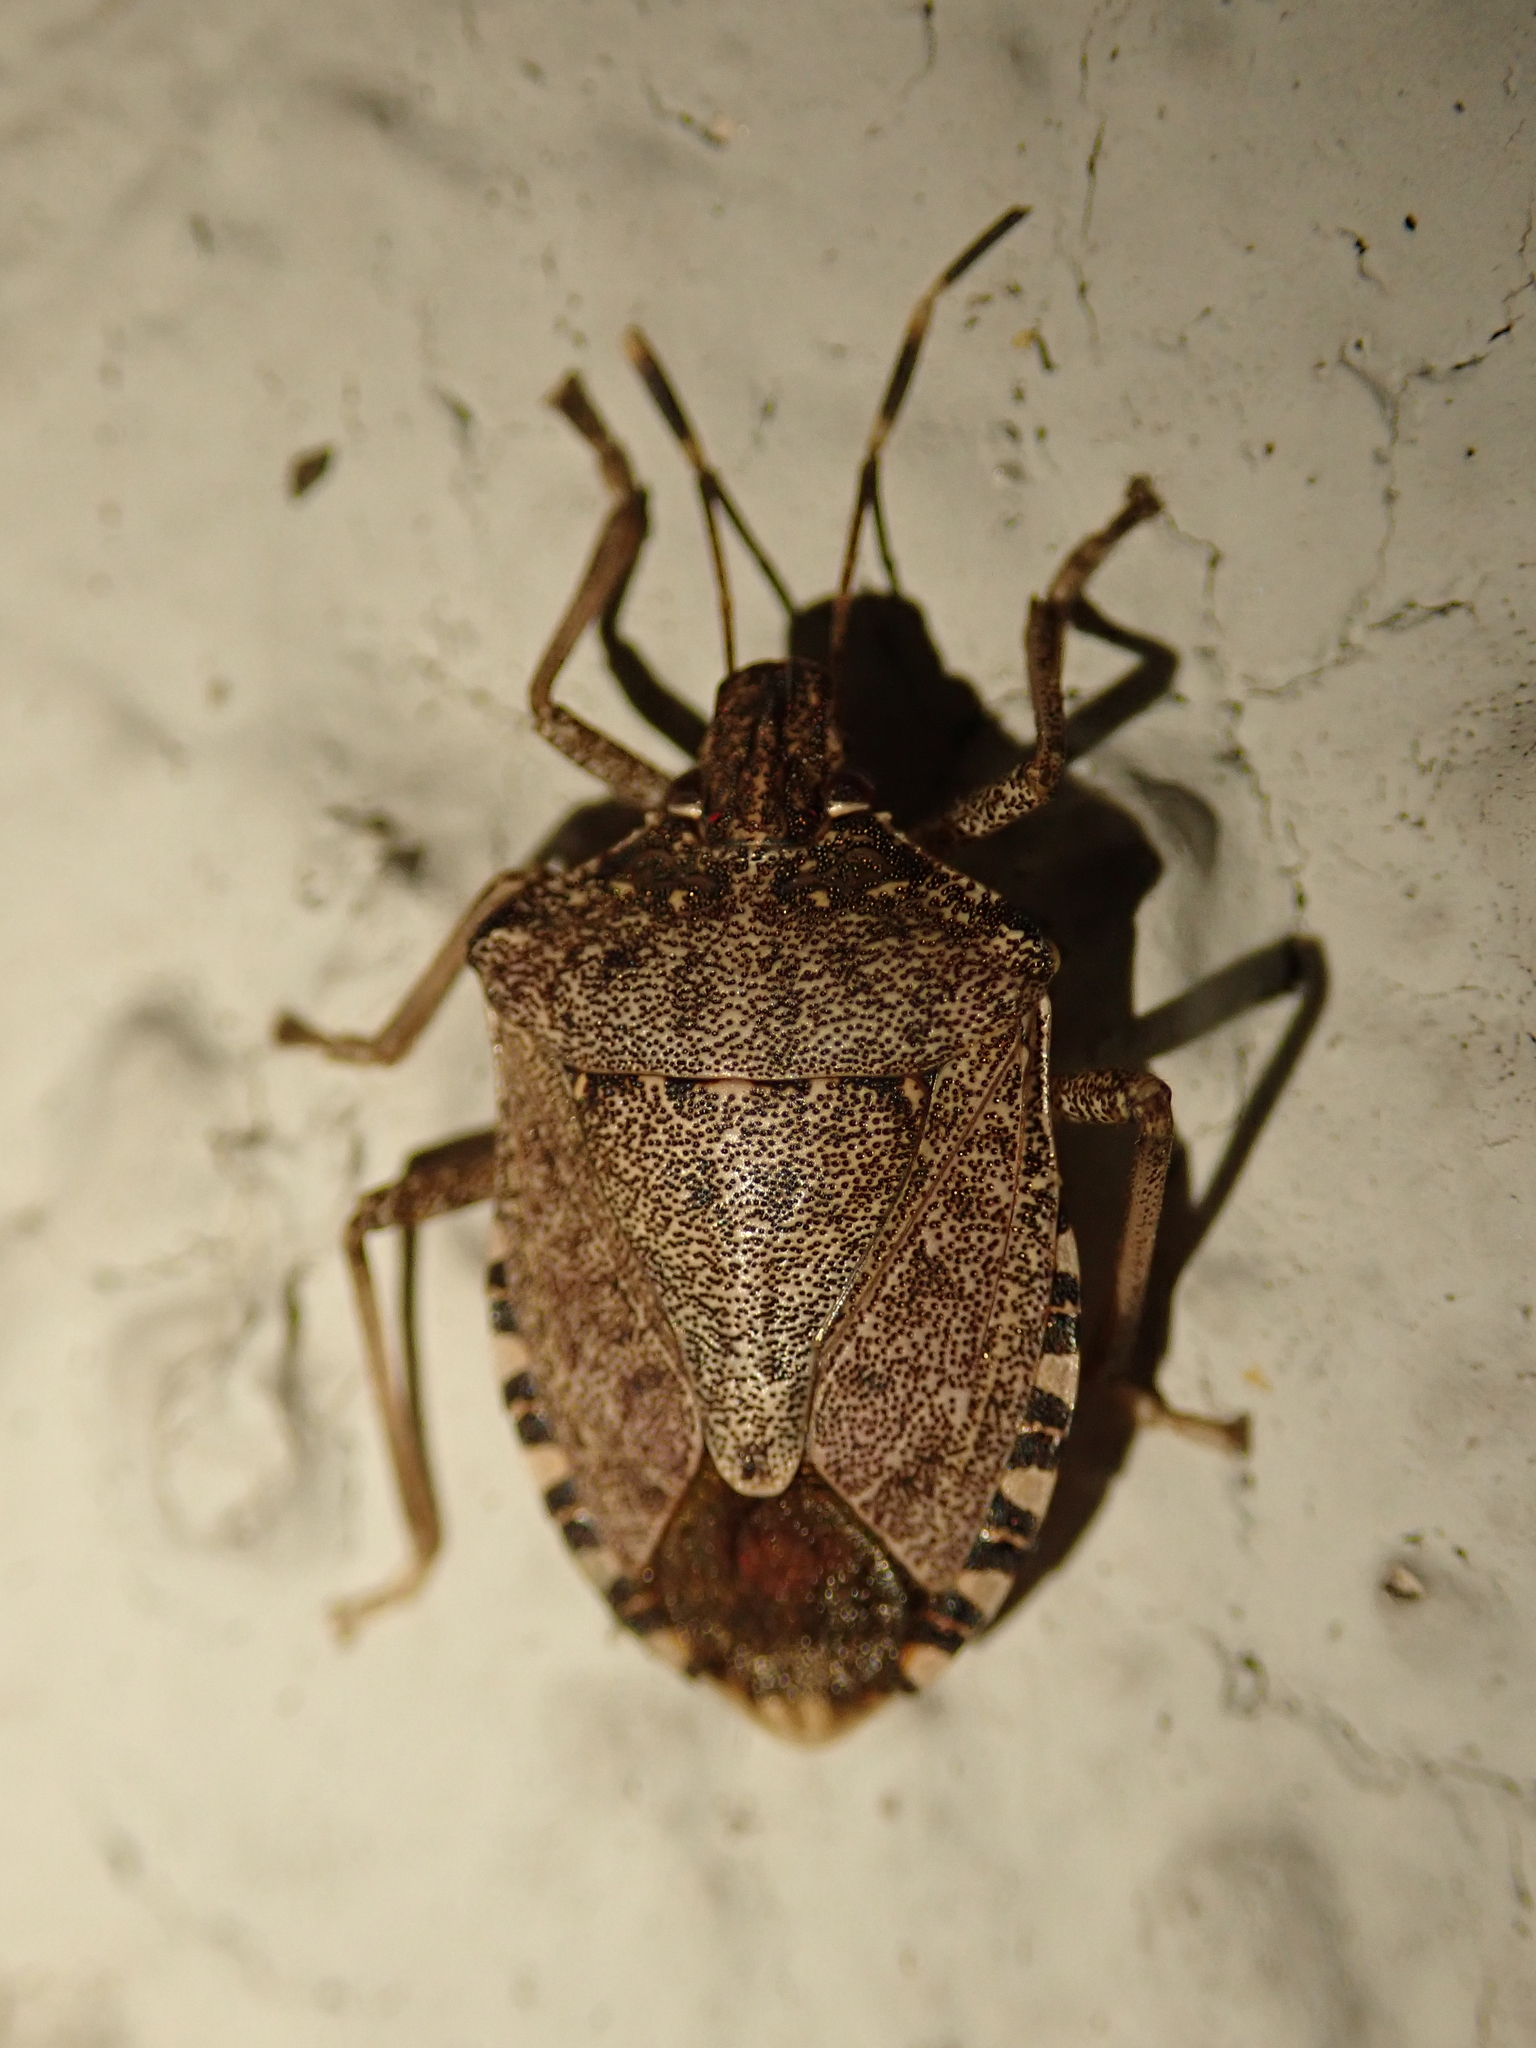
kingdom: Animalia
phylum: Arthropoda
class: Insecta
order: Hemiptera
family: Pentatomidae
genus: Halyomorpha
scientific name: Halyomorpha halys
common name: Brown marmorated stink bug
